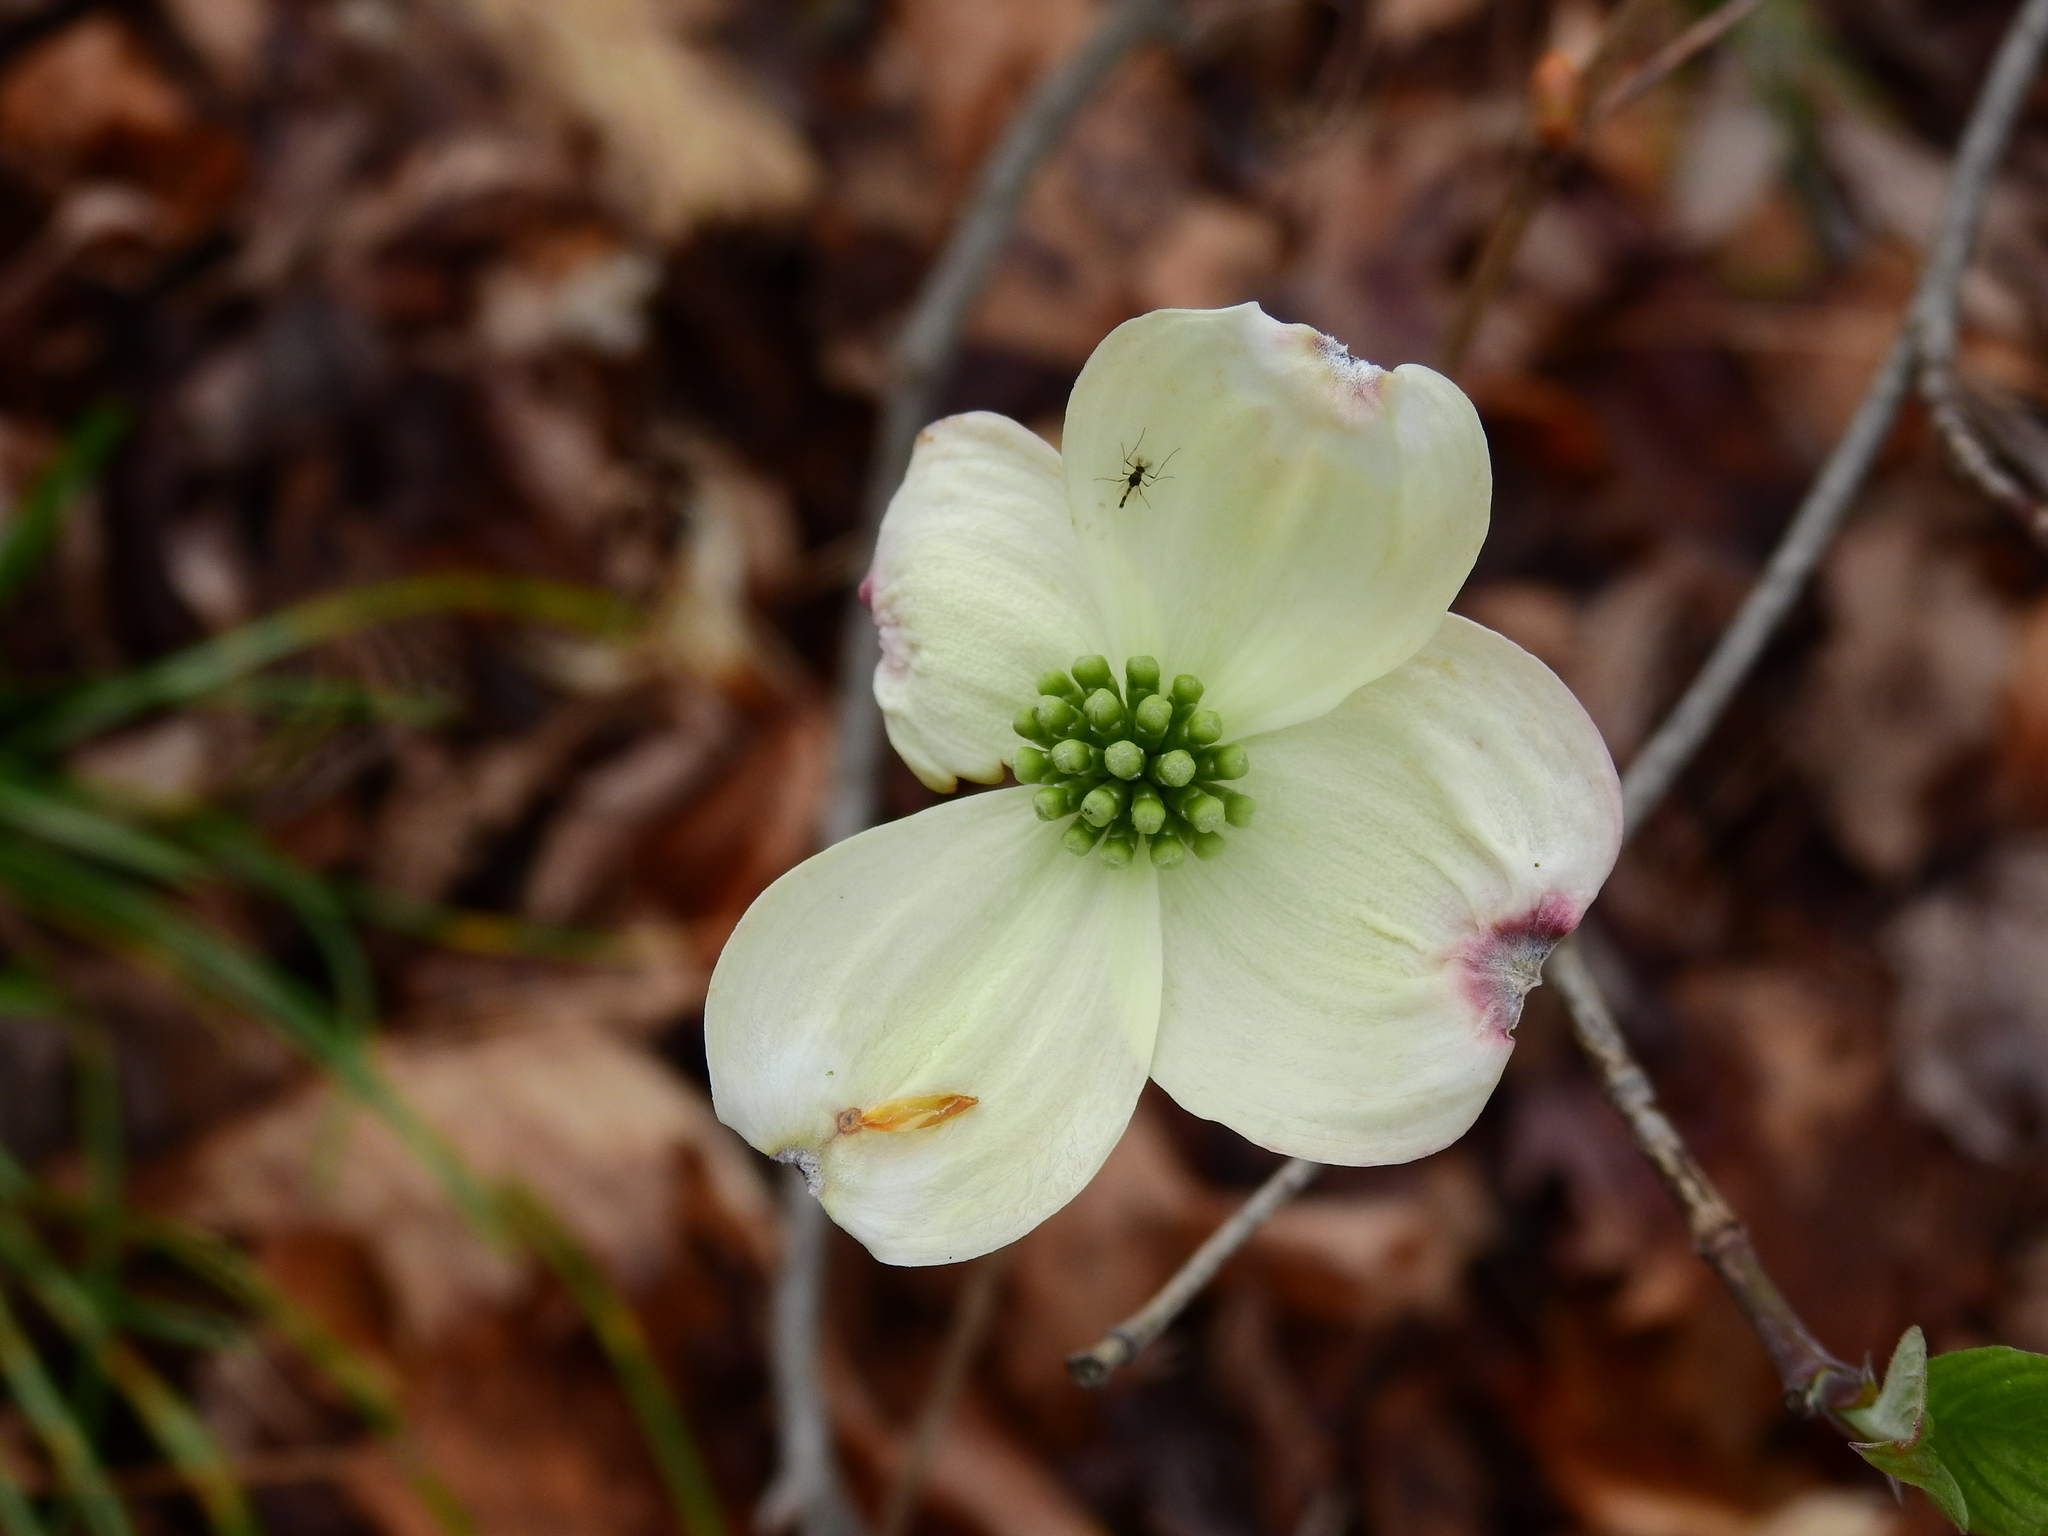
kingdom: Plantae
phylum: Tracheophyta
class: Magnoliopsida
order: Cornales
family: Cornaceae
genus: Cornus
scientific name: Cornus florida
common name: Flowering dogwood
